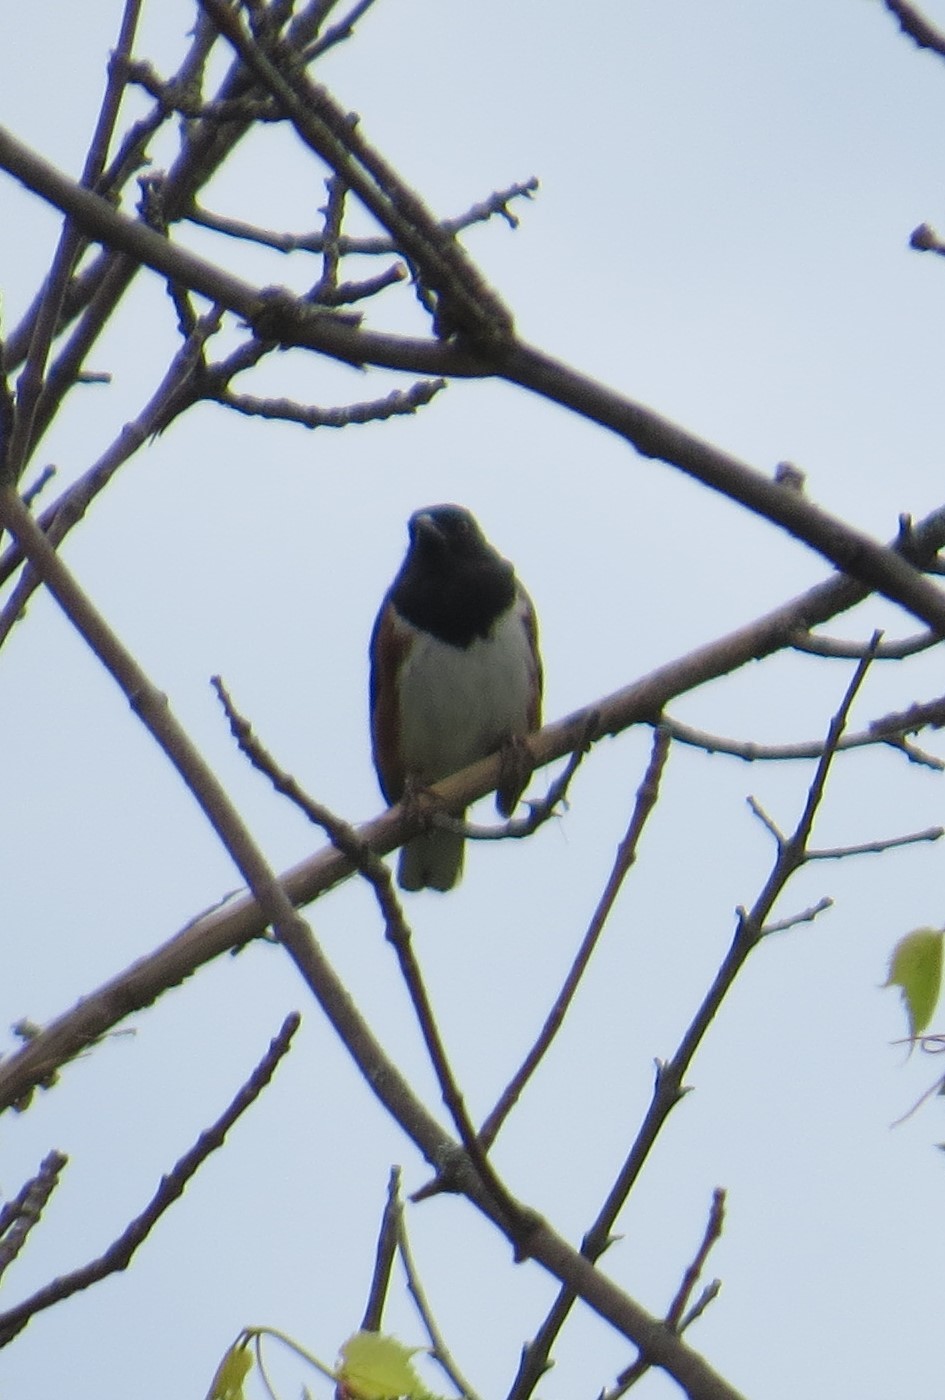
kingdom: Animalia
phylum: Chordata
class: Aves
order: Passeriformes
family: Passerellidae
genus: Pipilo
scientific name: Pipilo erythrophthalmus
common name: Eastern towhee
